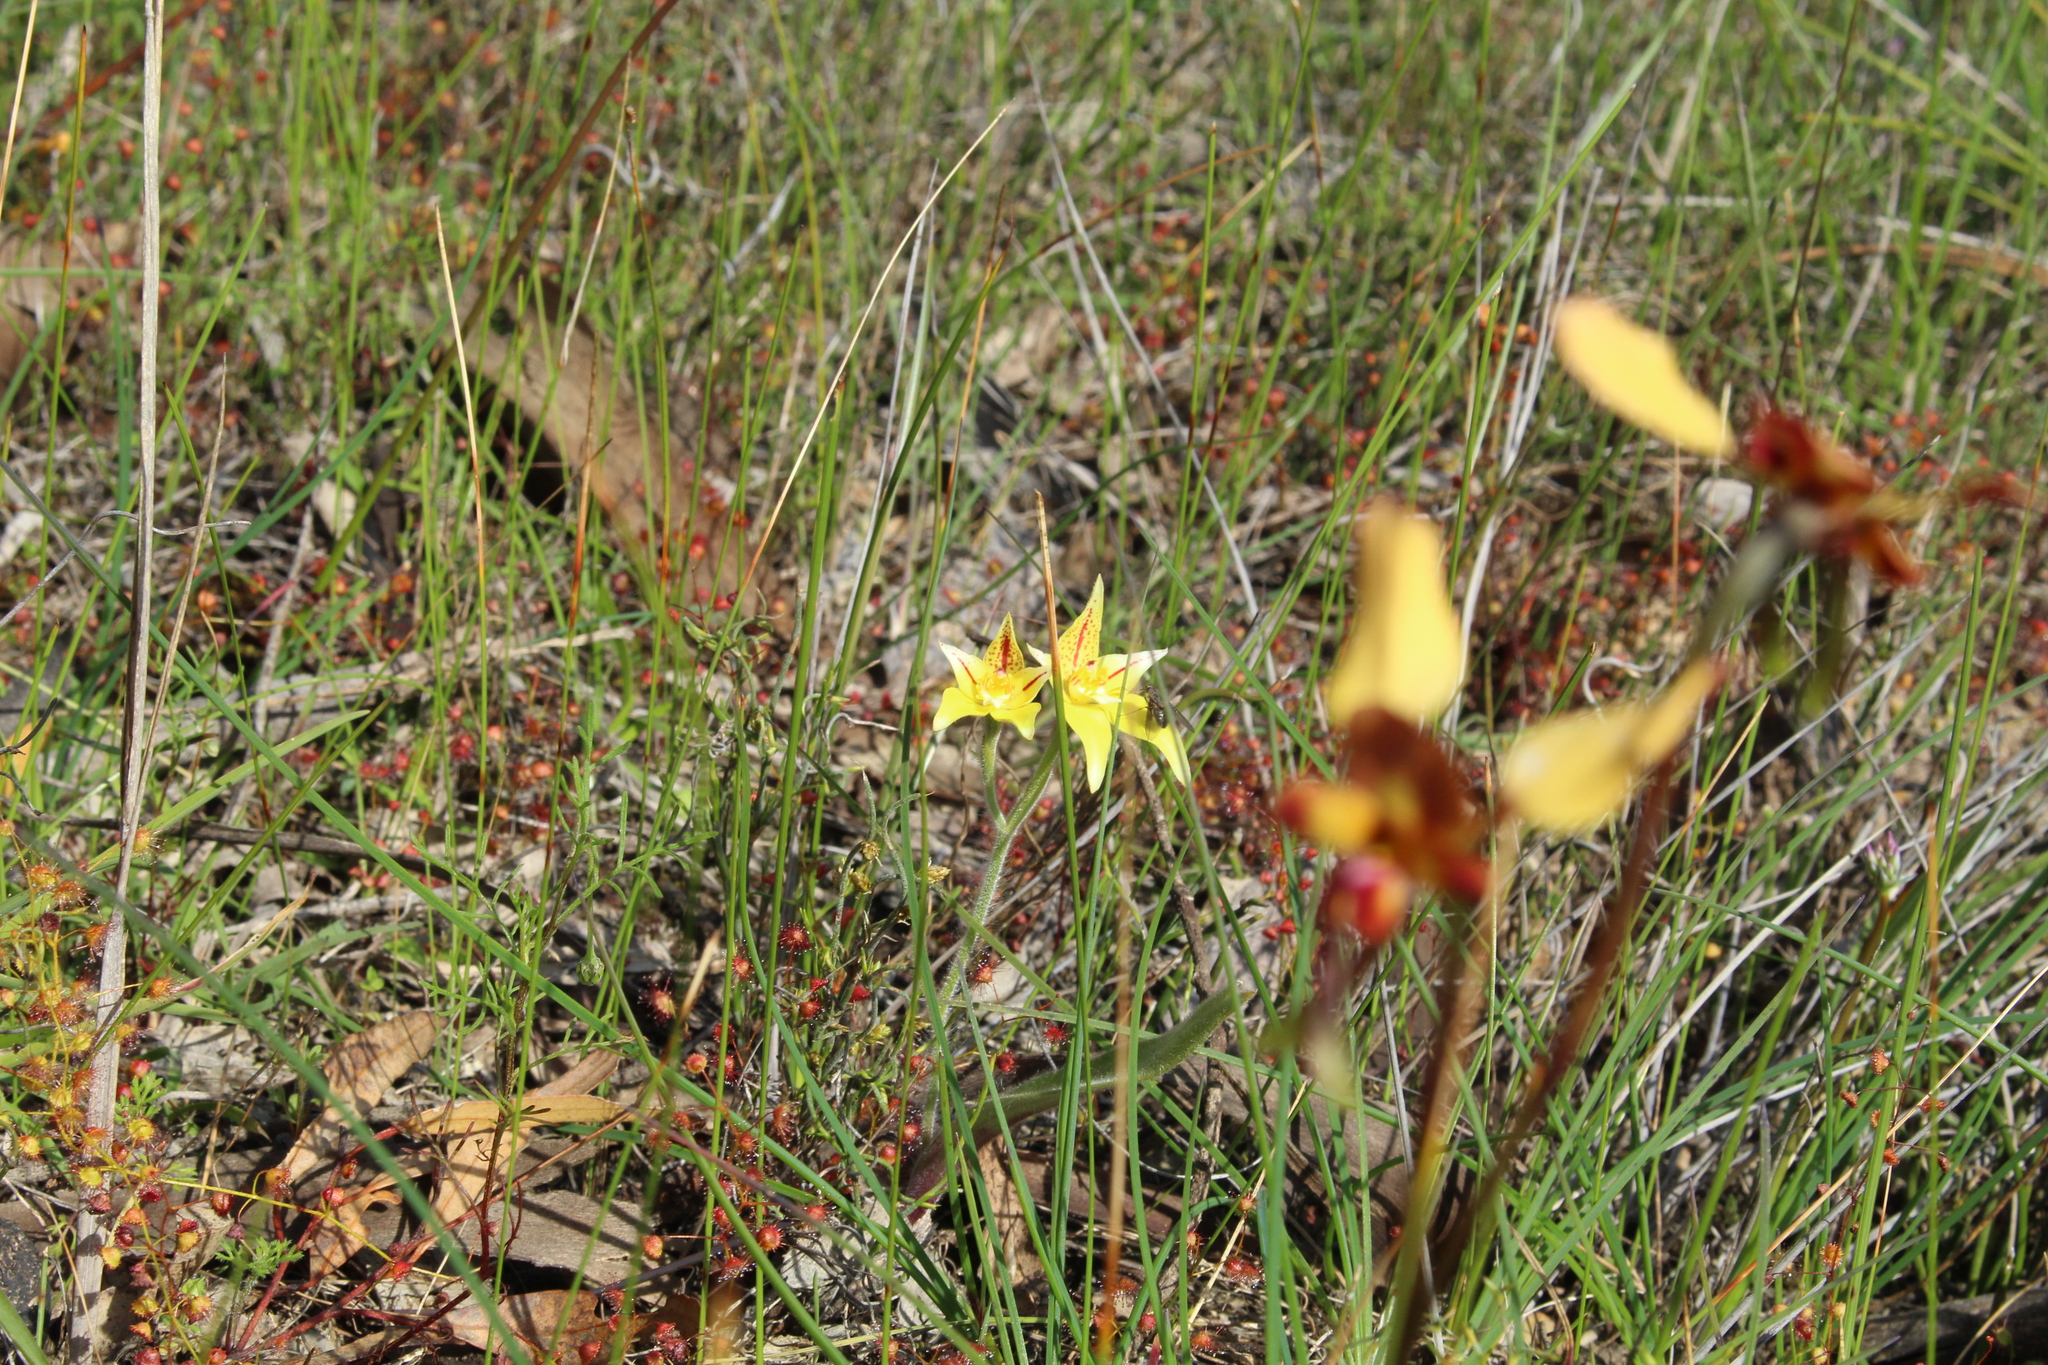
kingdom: Plantae
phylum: Tracheophyta
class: Liliopsida
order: Asparagales
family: Orchidaceae
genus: Caladenia
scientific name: Caladenia flava
